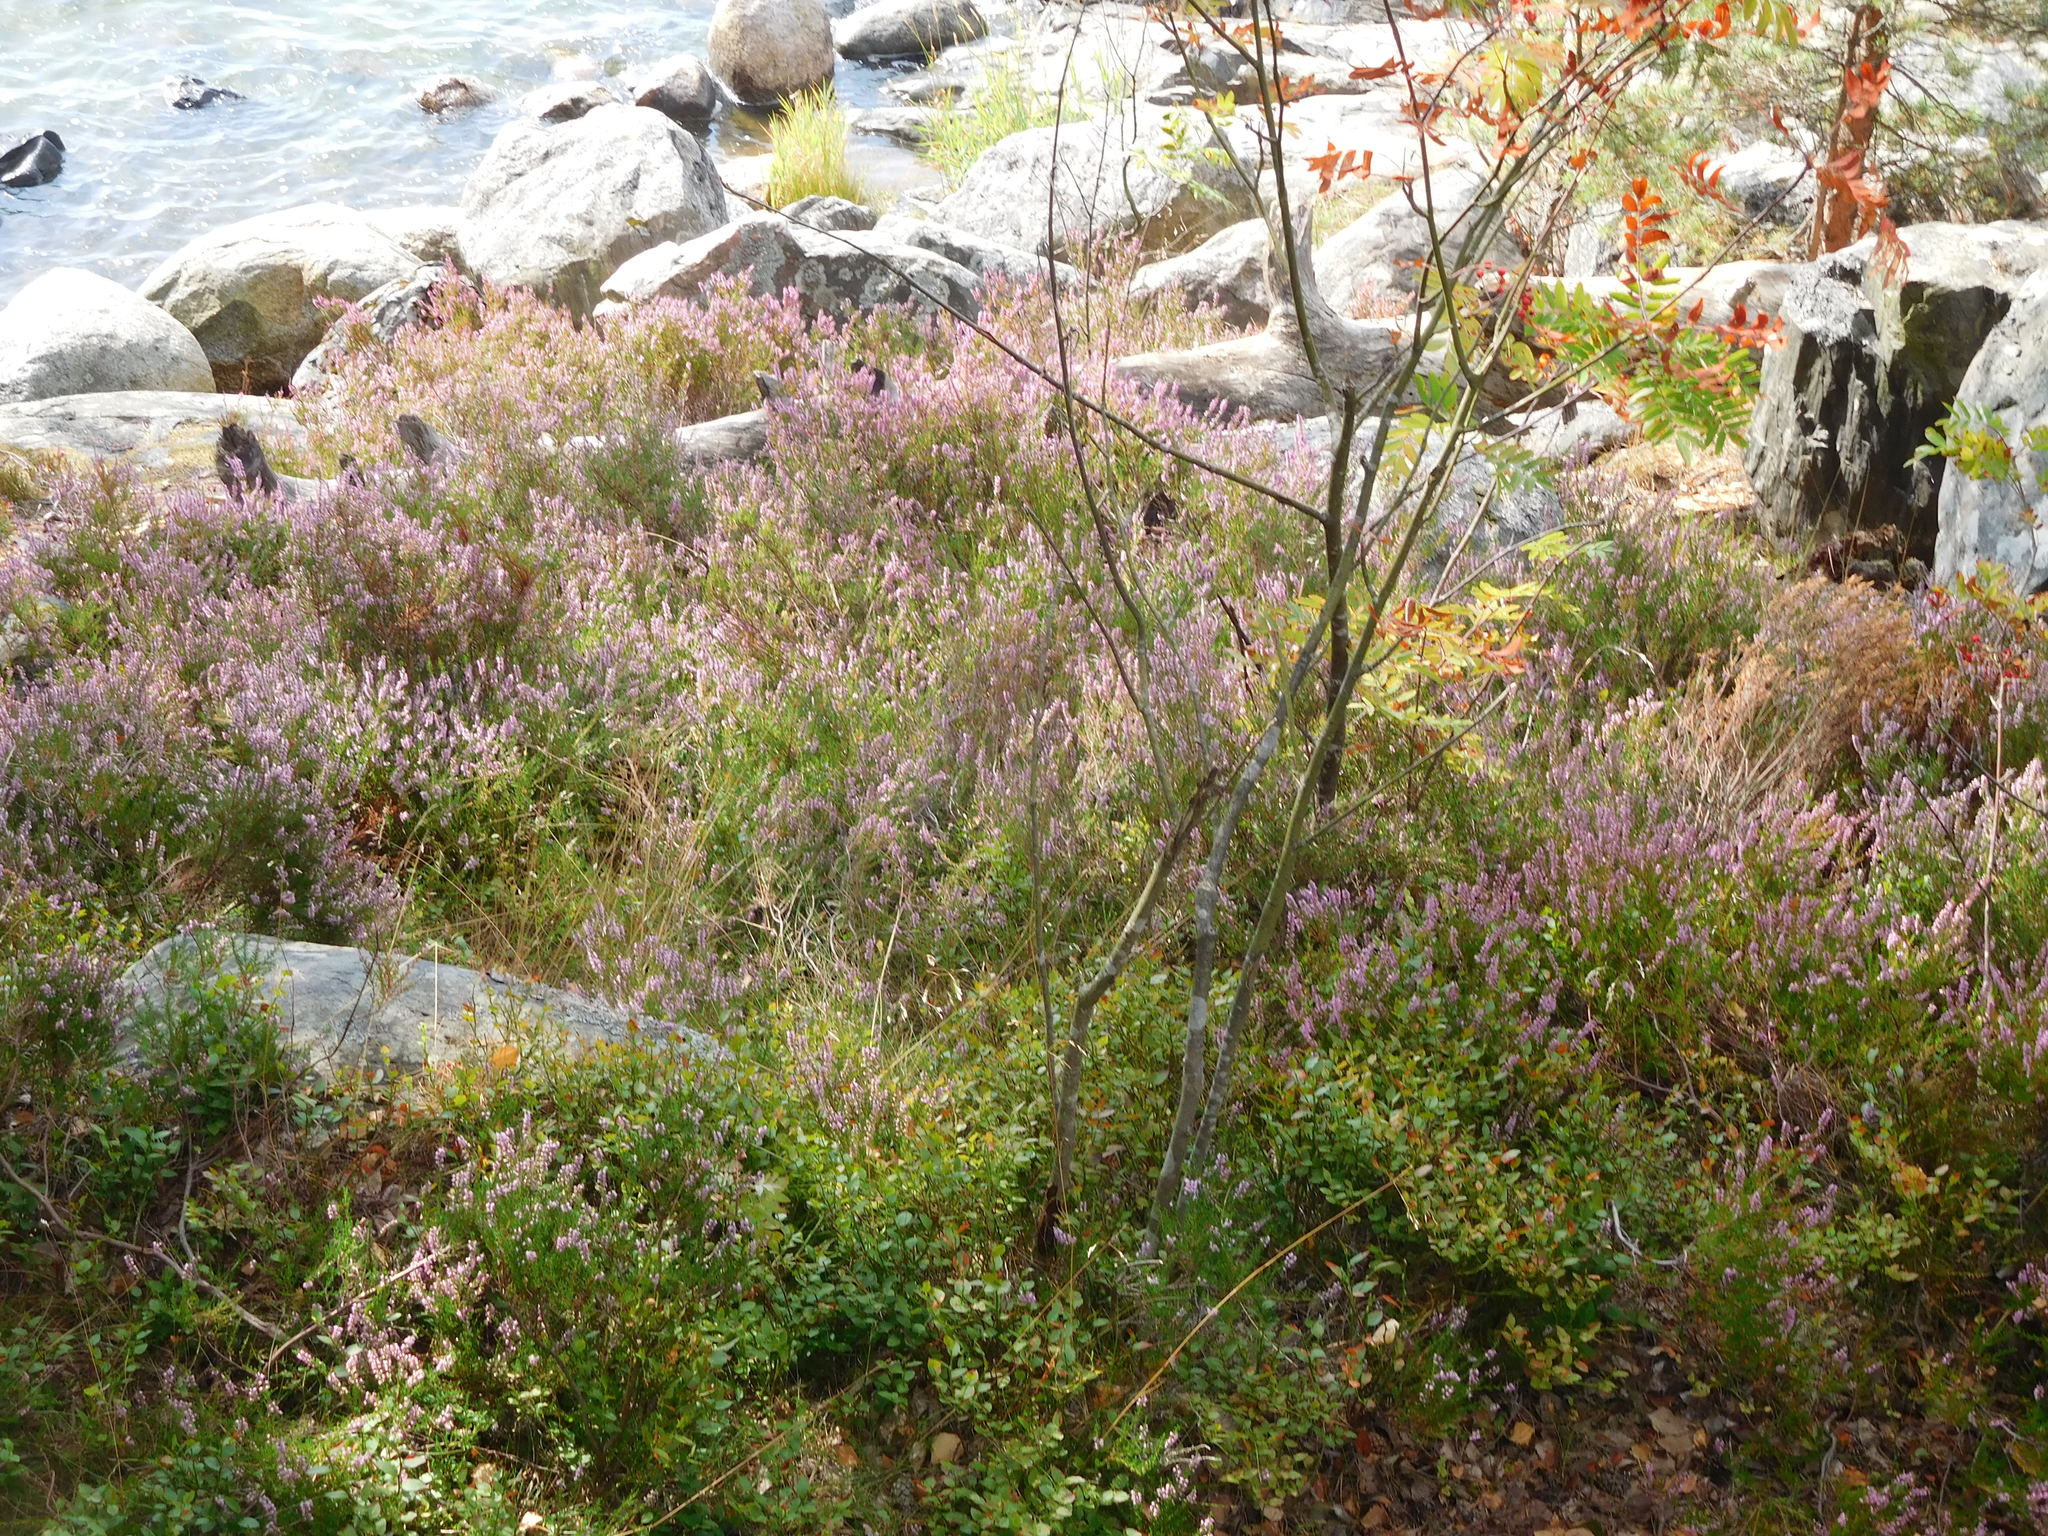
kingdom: Plantae
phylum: Tracheophyta
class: Magnoliopsida
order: Ericales
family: Ericaceae
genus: Calluna
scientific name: Calluna vulgaris
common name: Heather
